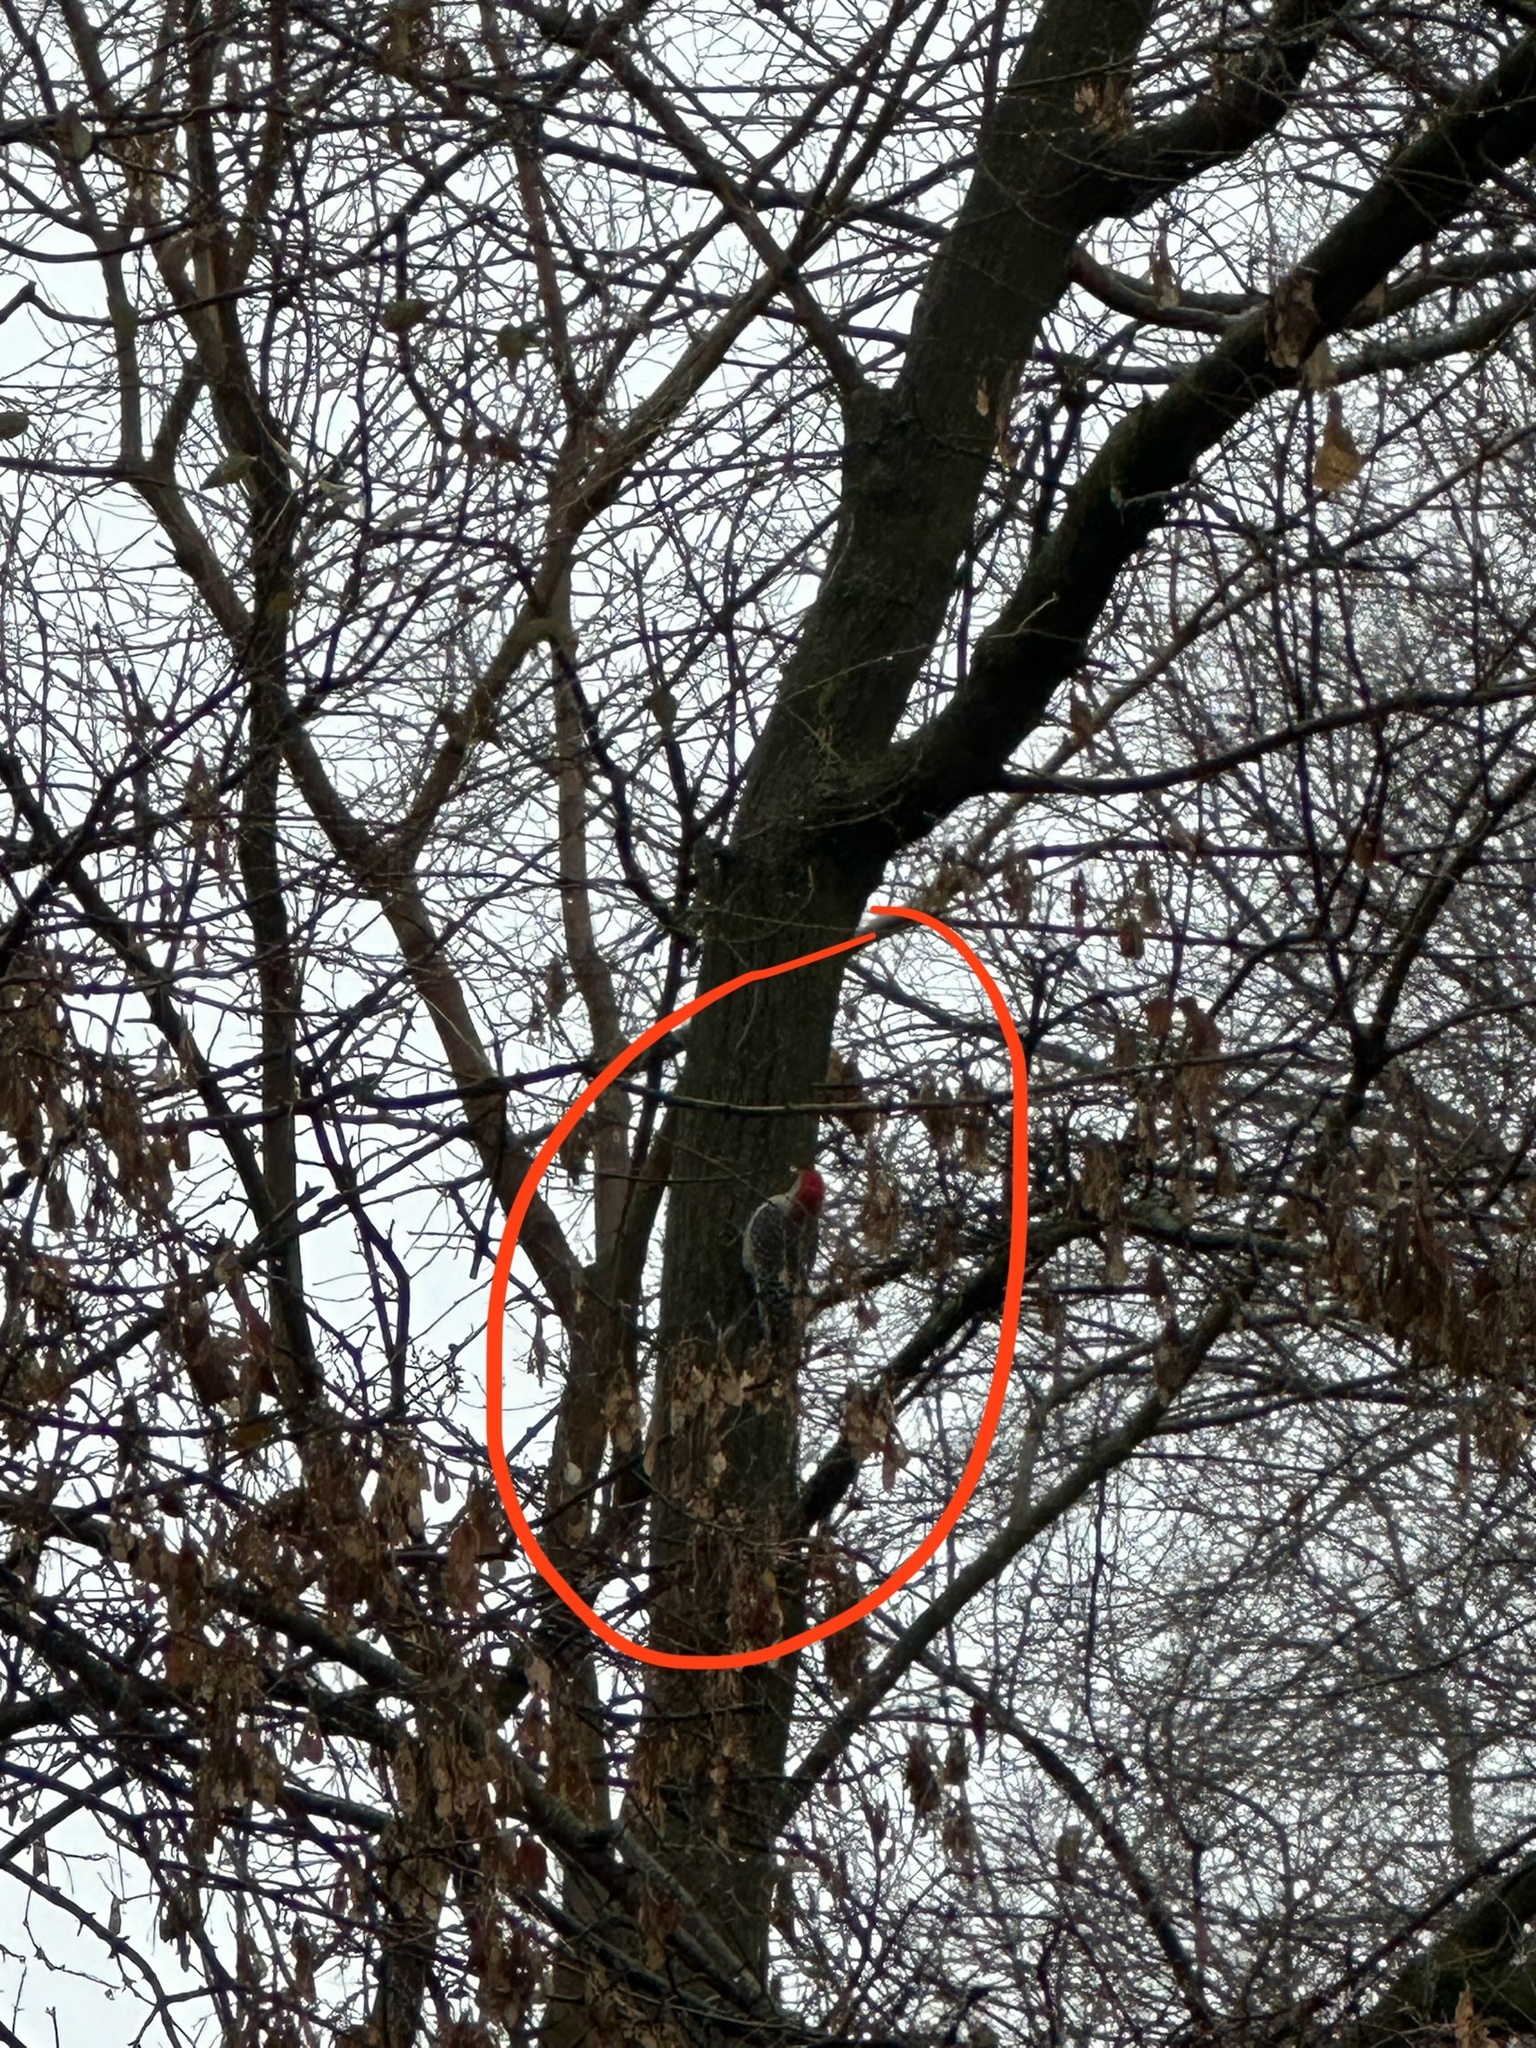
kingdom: Animalia
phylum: Chordata
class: Aves
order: Piciformes
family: Picidae
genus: Melanerpes
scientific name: Melanerpes carolinus
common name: Red-bellied woodpecker
